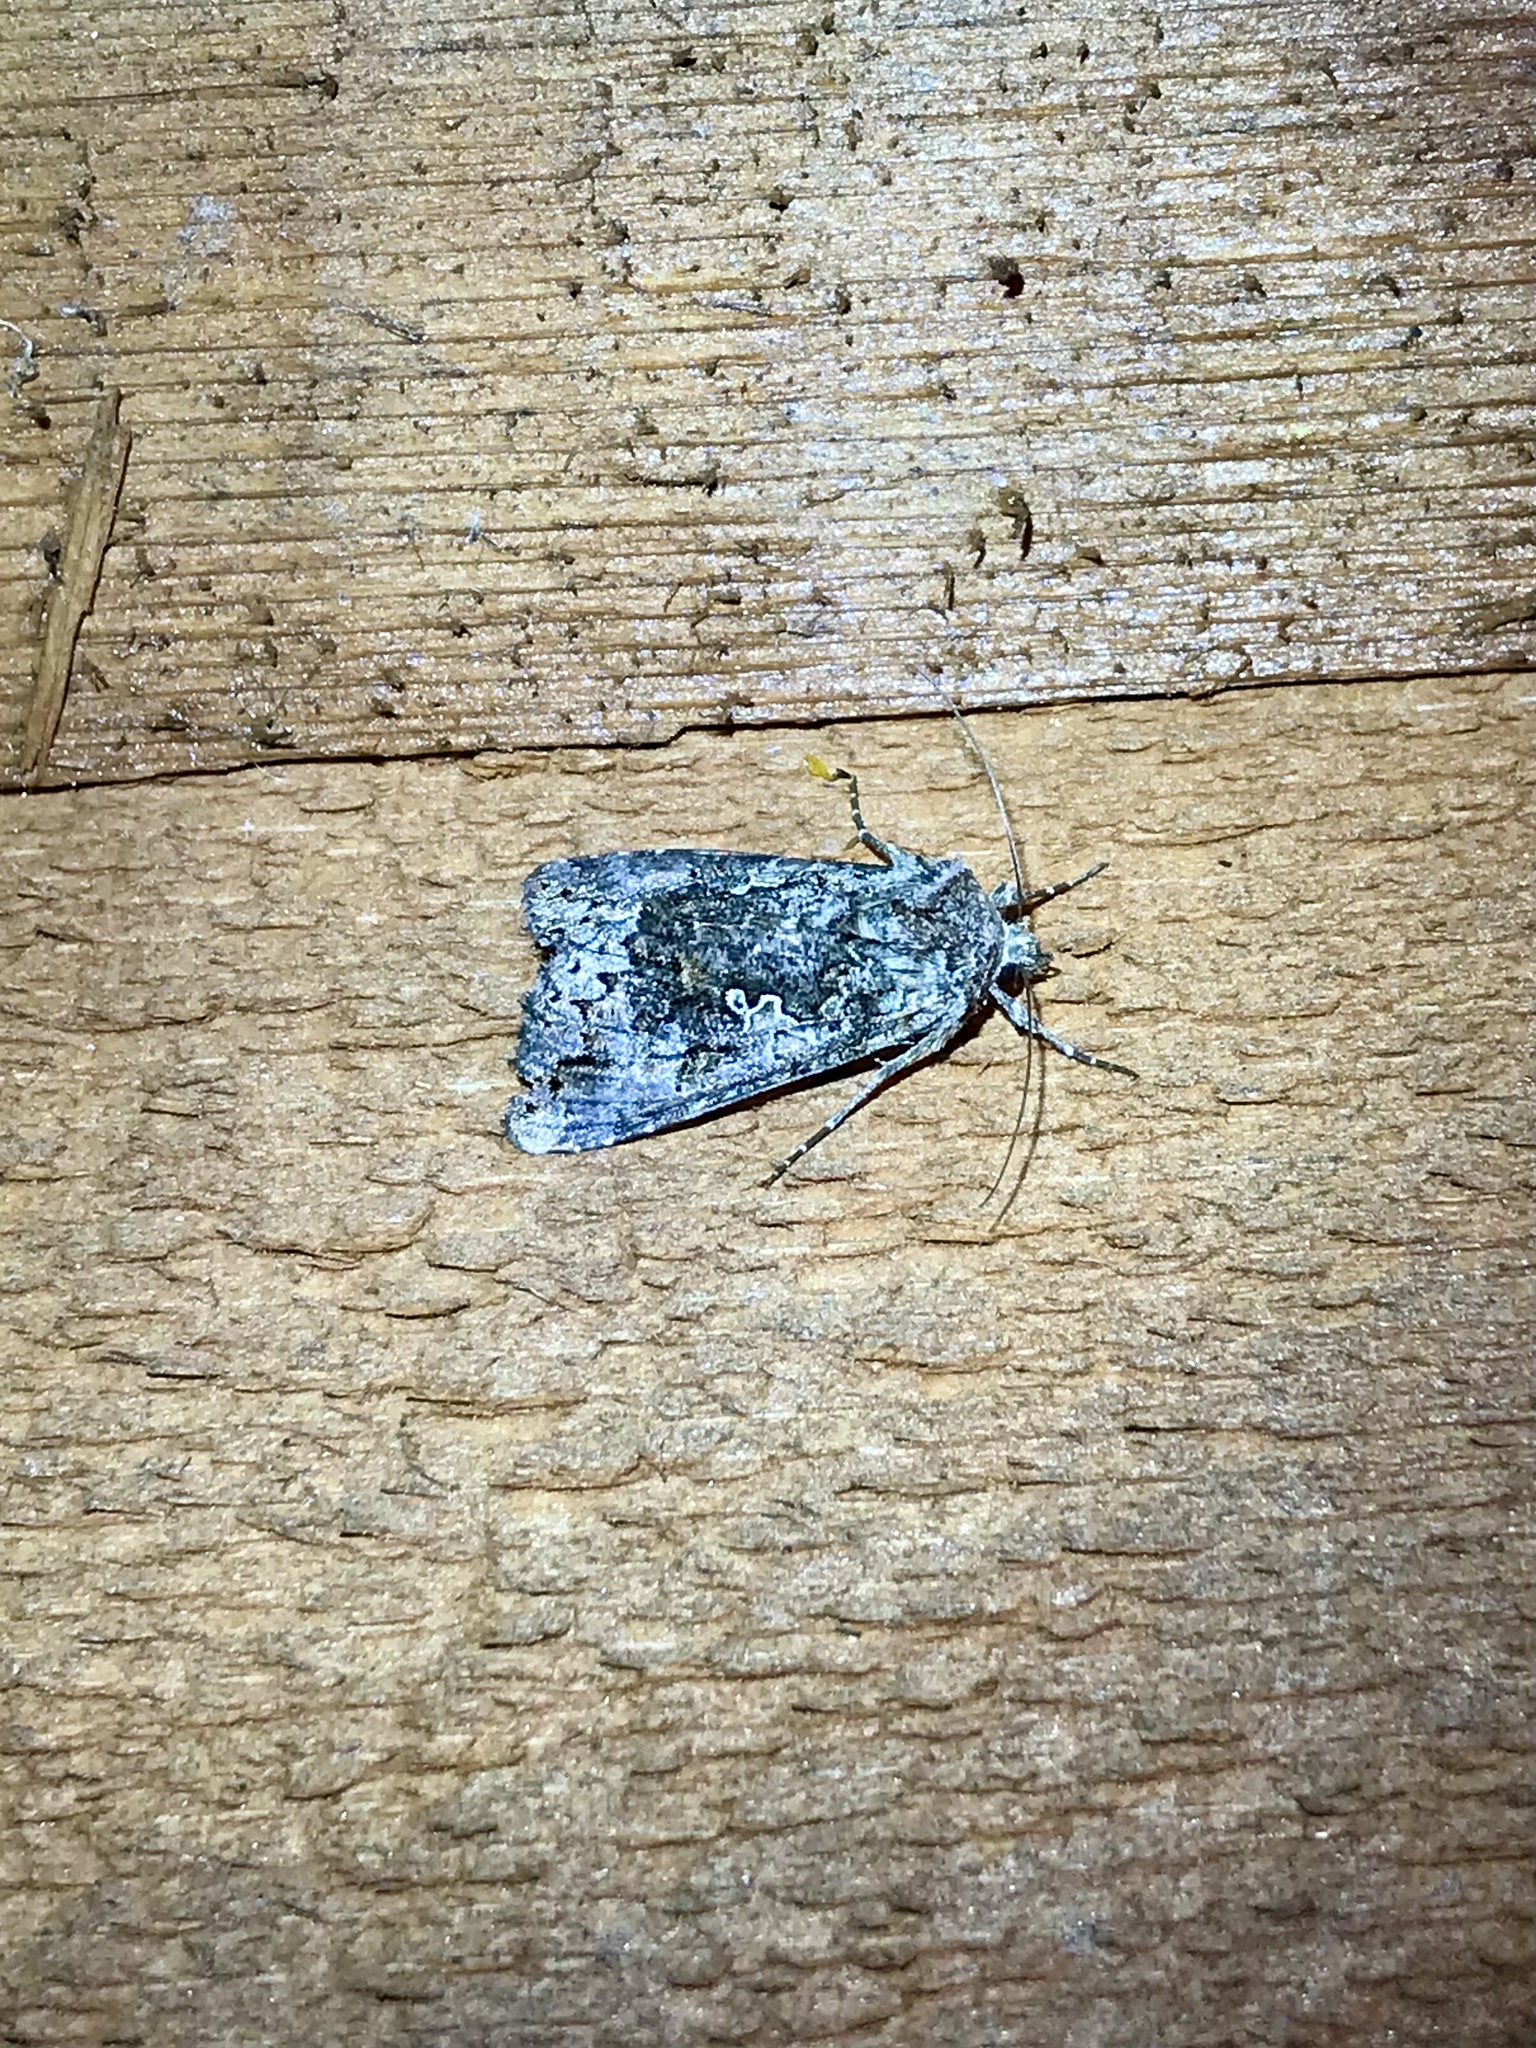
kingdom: Animalia
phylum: Arthropoda
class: Insecta
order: Lepidoptera
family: Noctuidae
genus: Syngrapha
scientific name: Syngrapha octoscripta
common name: Dusky silver y moth
